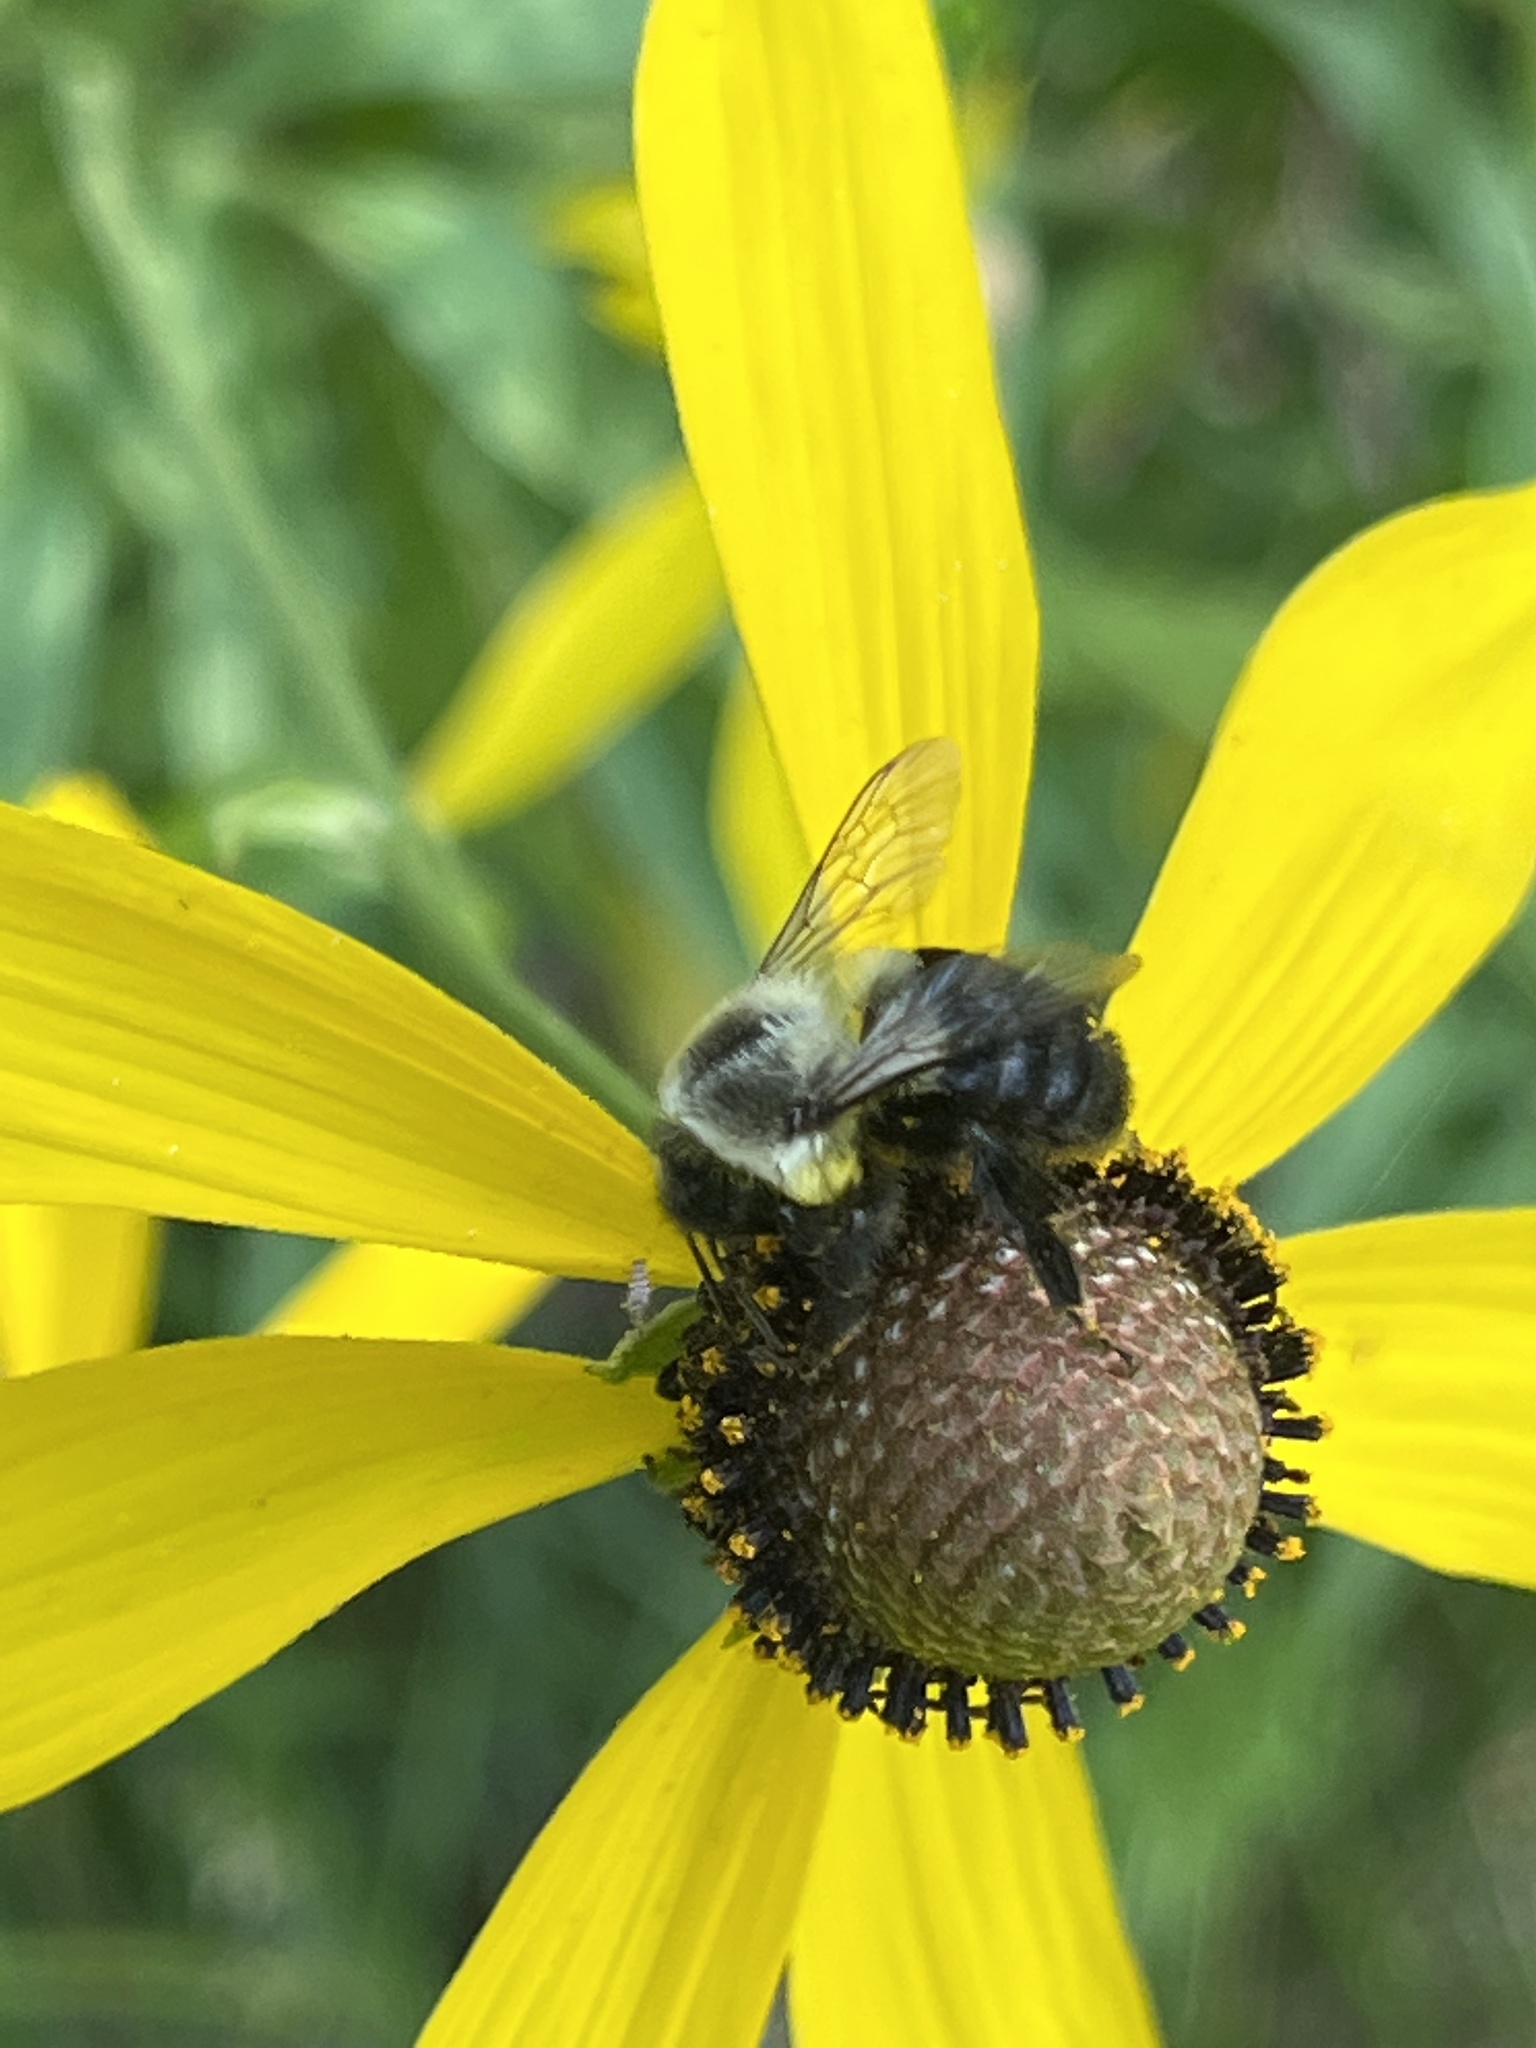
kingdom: Animalia
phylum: Arthropoda
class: Insecta
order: Hymenoptera
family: Apidae
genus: Bombus
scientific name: Bombus impatiens
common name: Common eastern bumble bee
